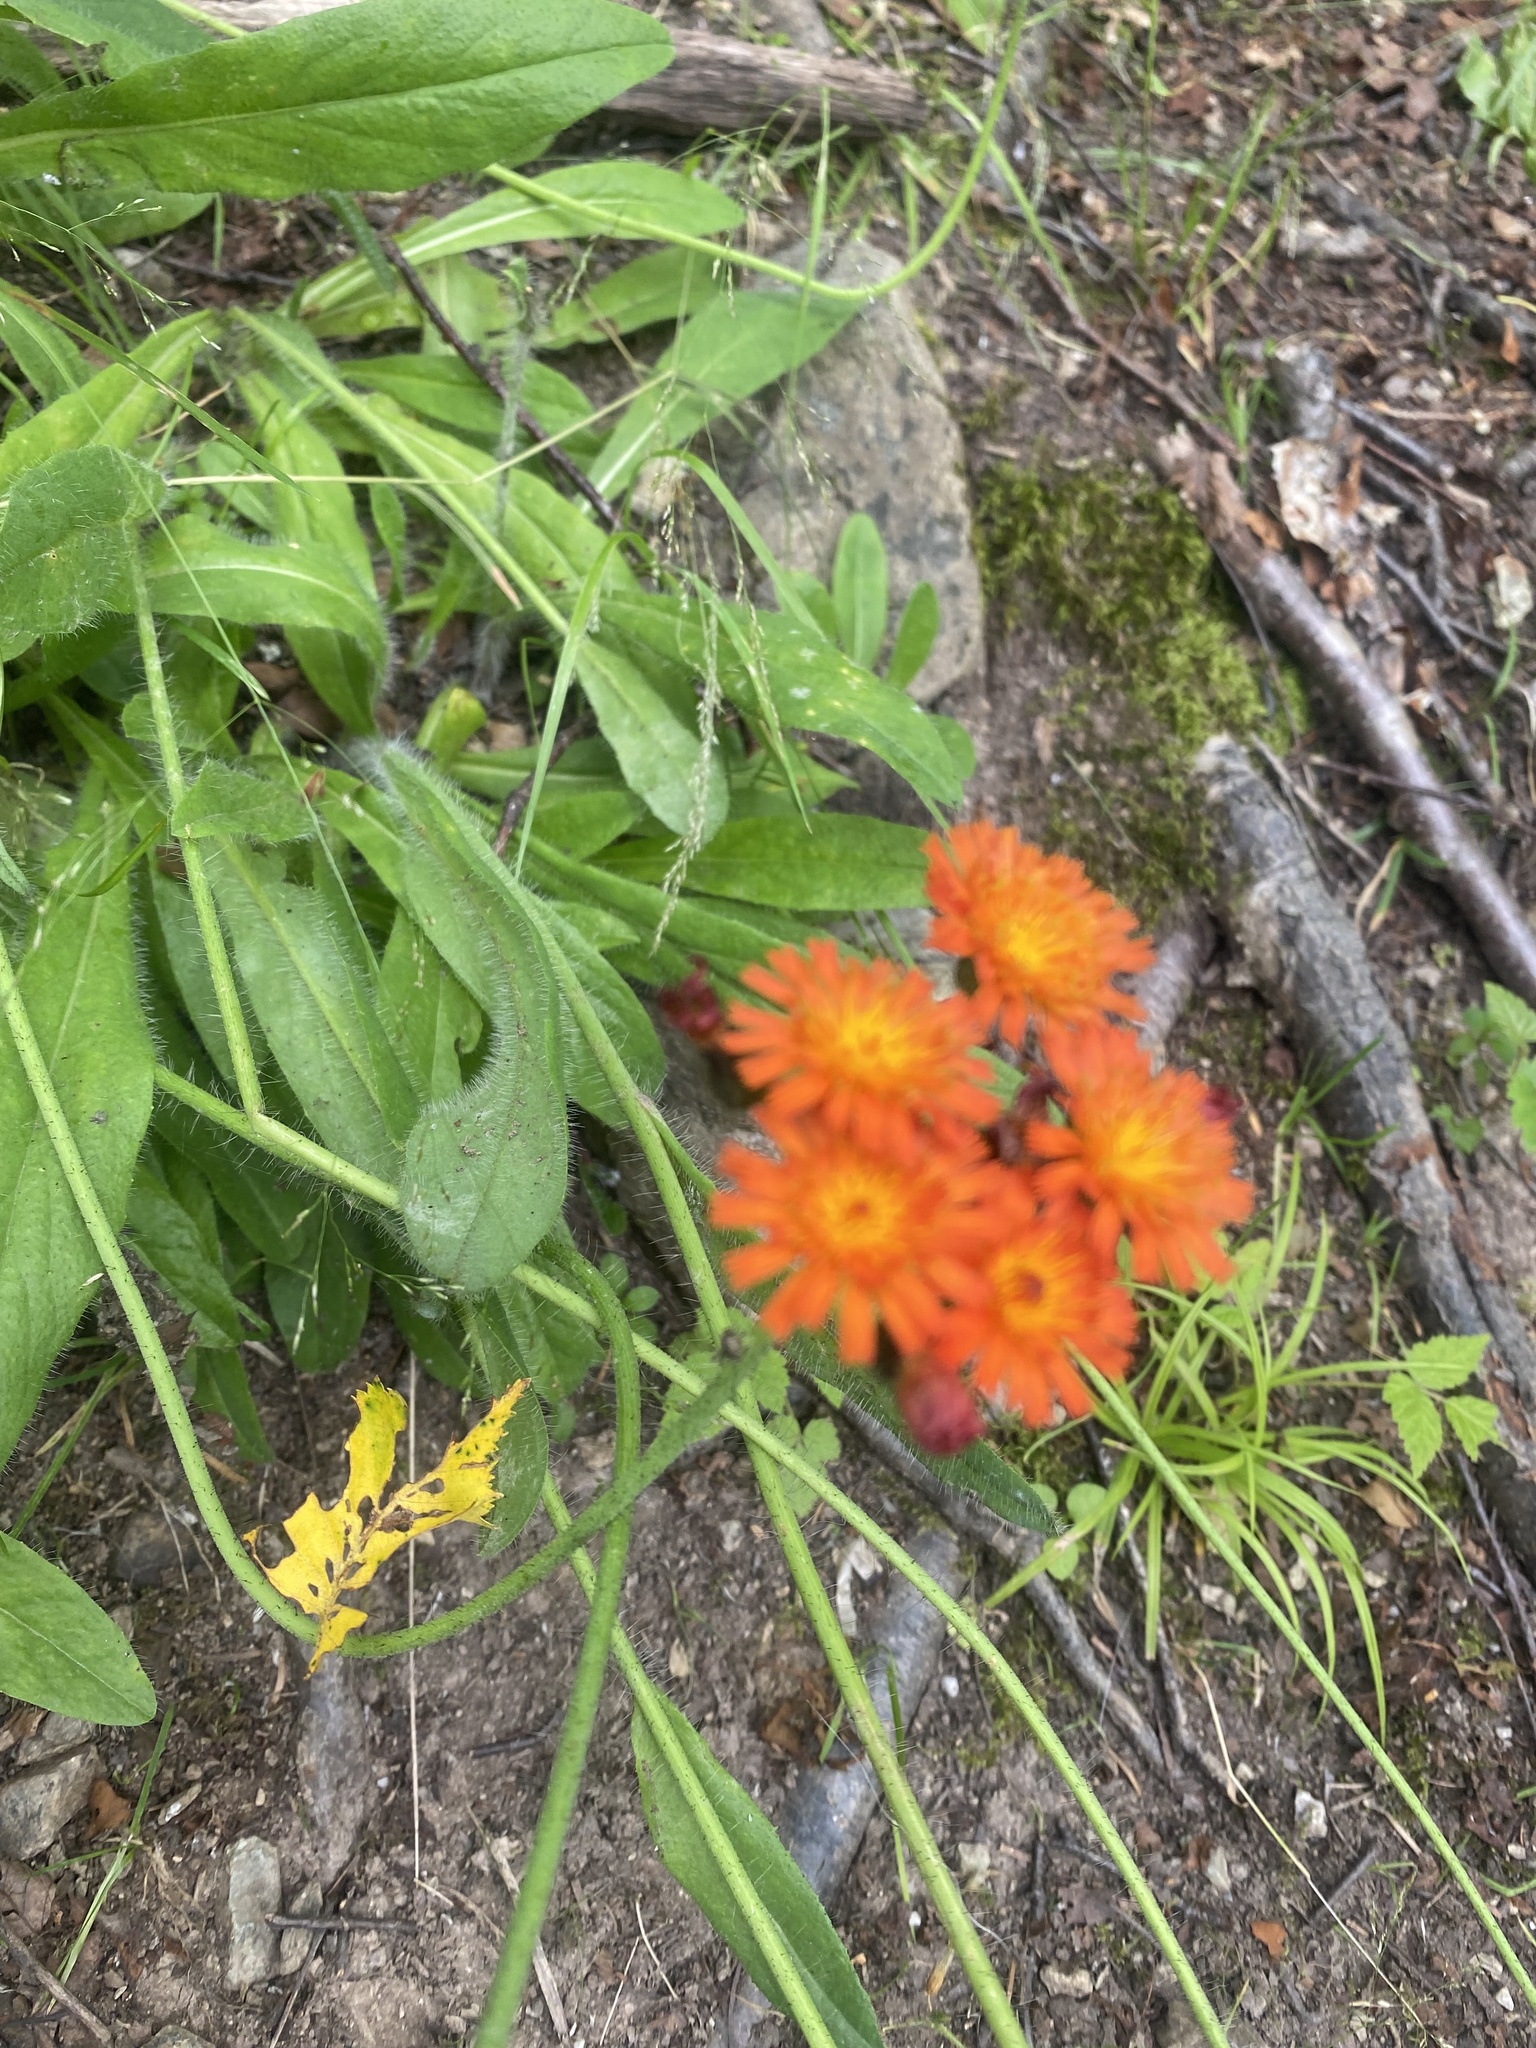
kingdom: Plantae
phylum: Tracheophyta
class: Magnoliopsida
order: Asterales
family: Asteraceae
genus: Pilosella
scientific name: Pilosella aurantiaca
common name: Fox-and-cubs
